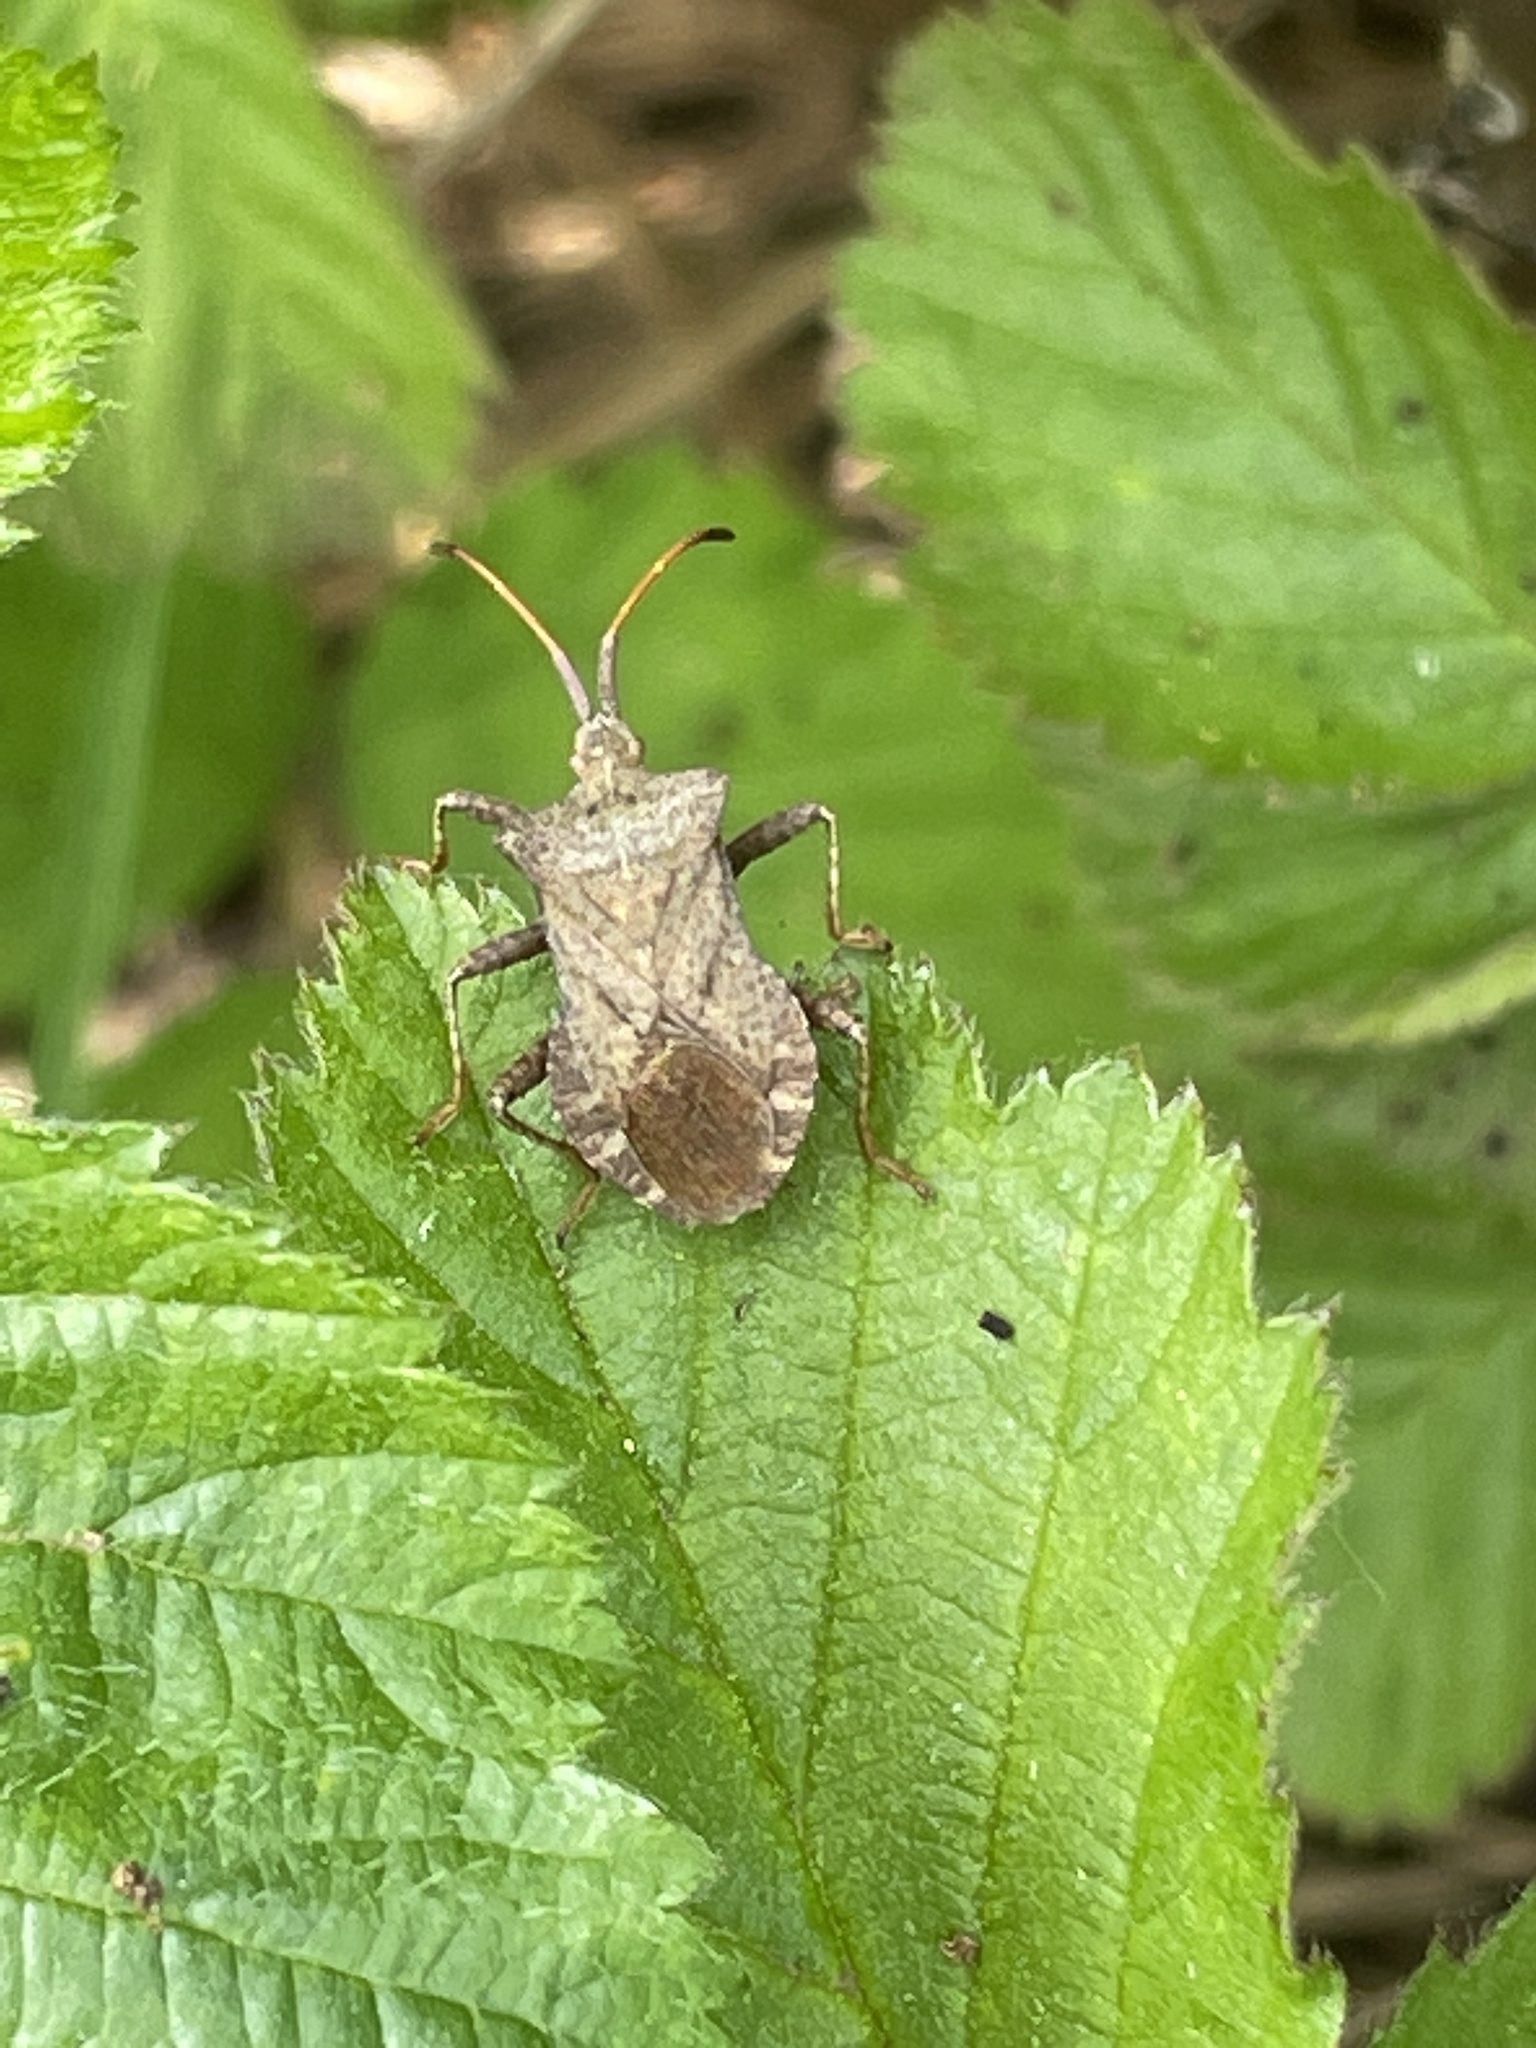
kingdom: Animalia
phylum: Arthropoda
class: Insecta
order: Hemiptera
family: Coreidae
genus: Coreus
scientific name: Coreus marginatus
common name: Dock bug
